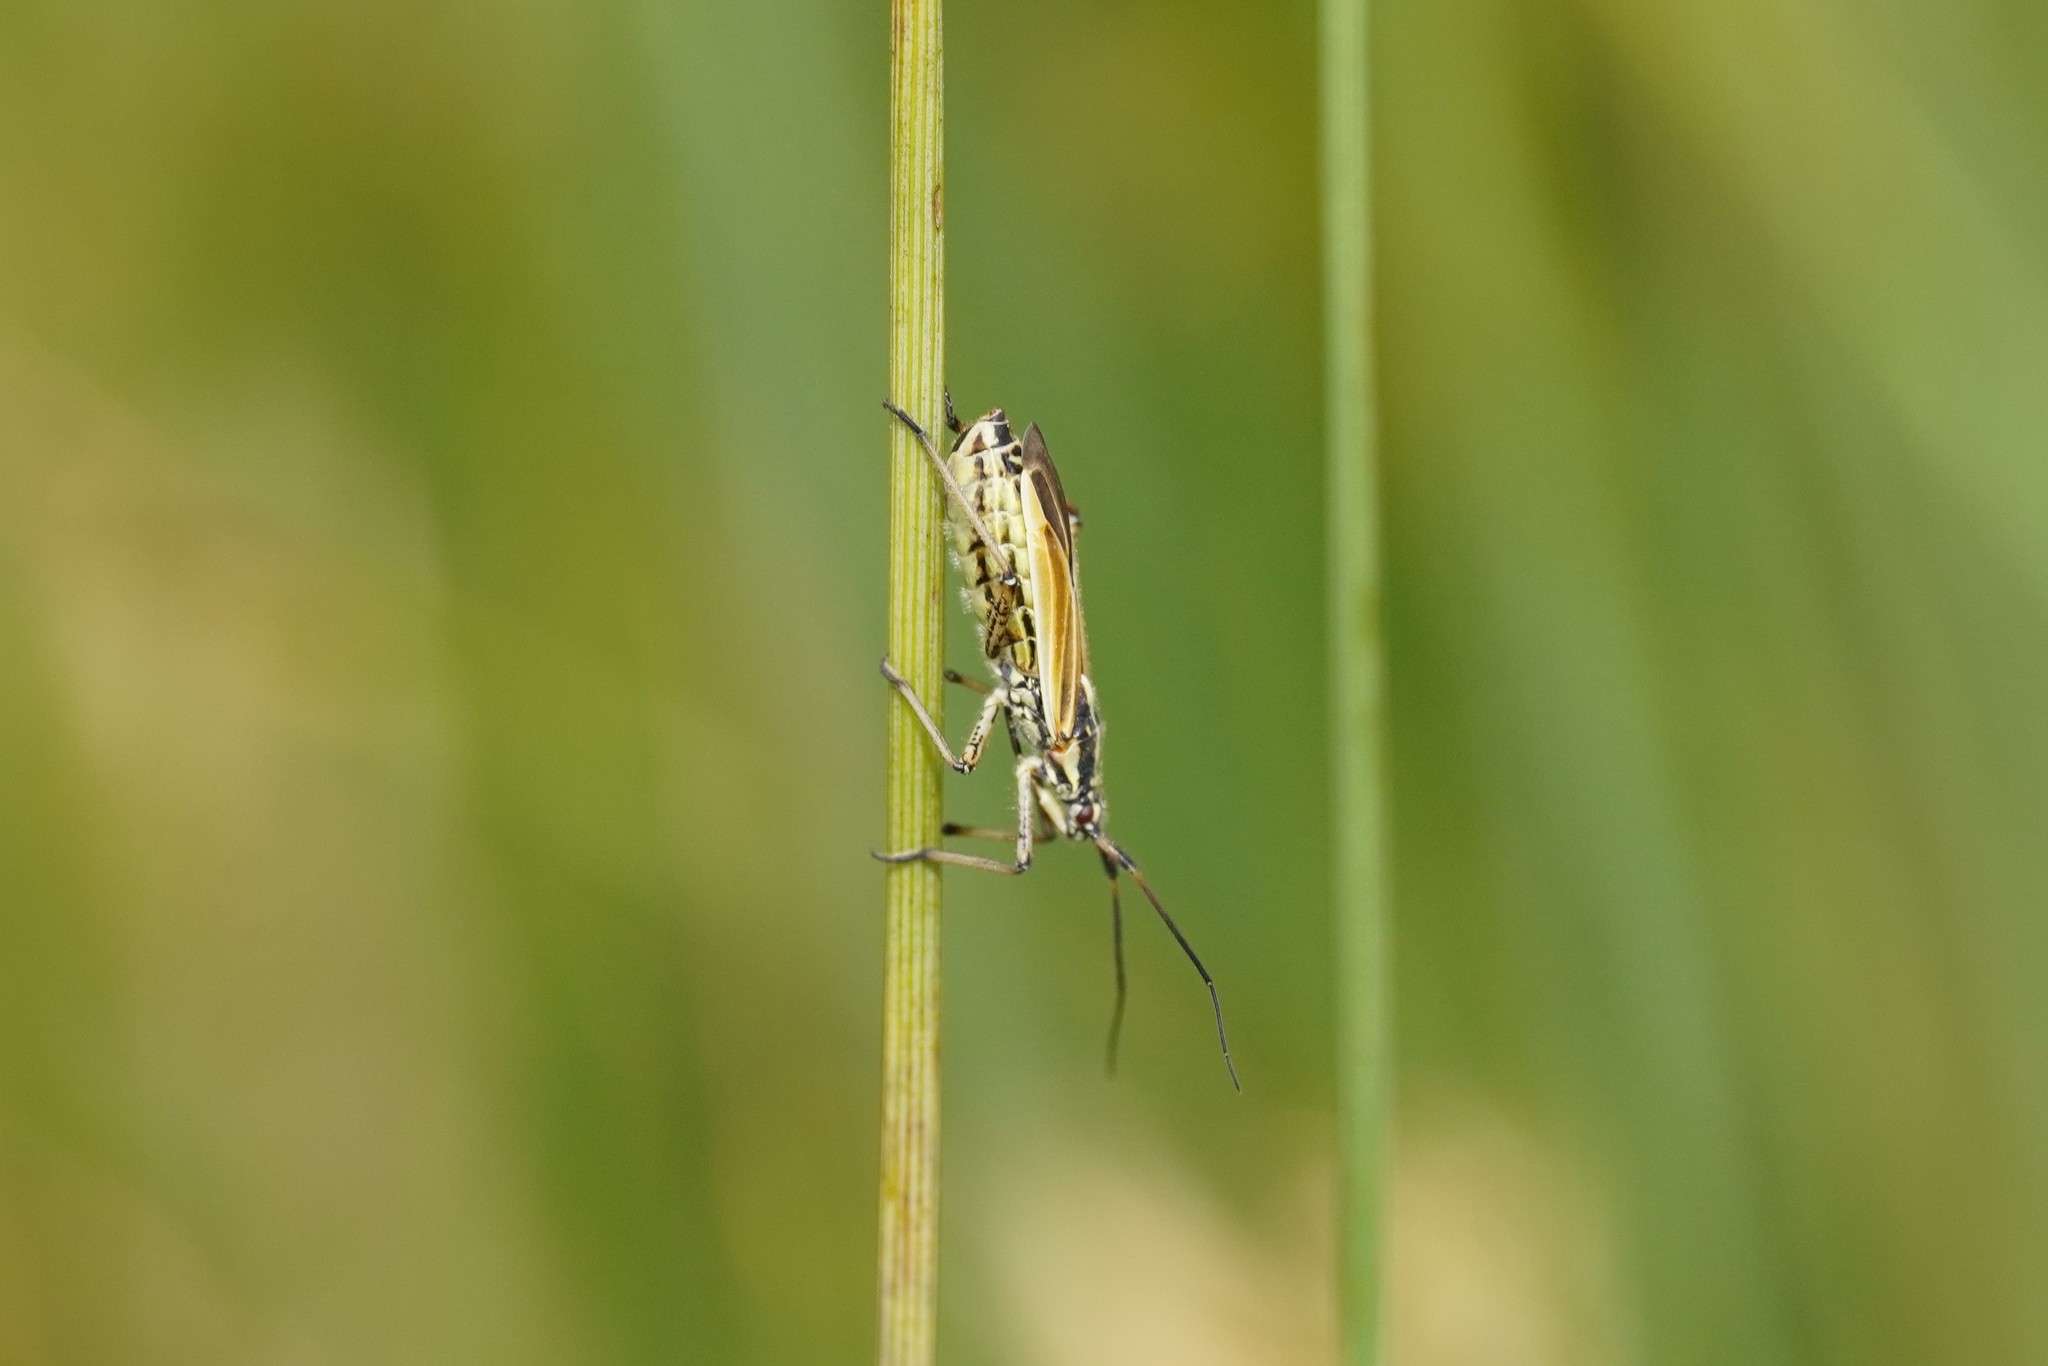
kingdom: Animalia
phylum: Arthropoda
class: Insecta
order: Hemiptera
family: Miridae
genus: Leptopterna
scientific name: Leptopterna dolabrata
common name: Meadow plant bug
